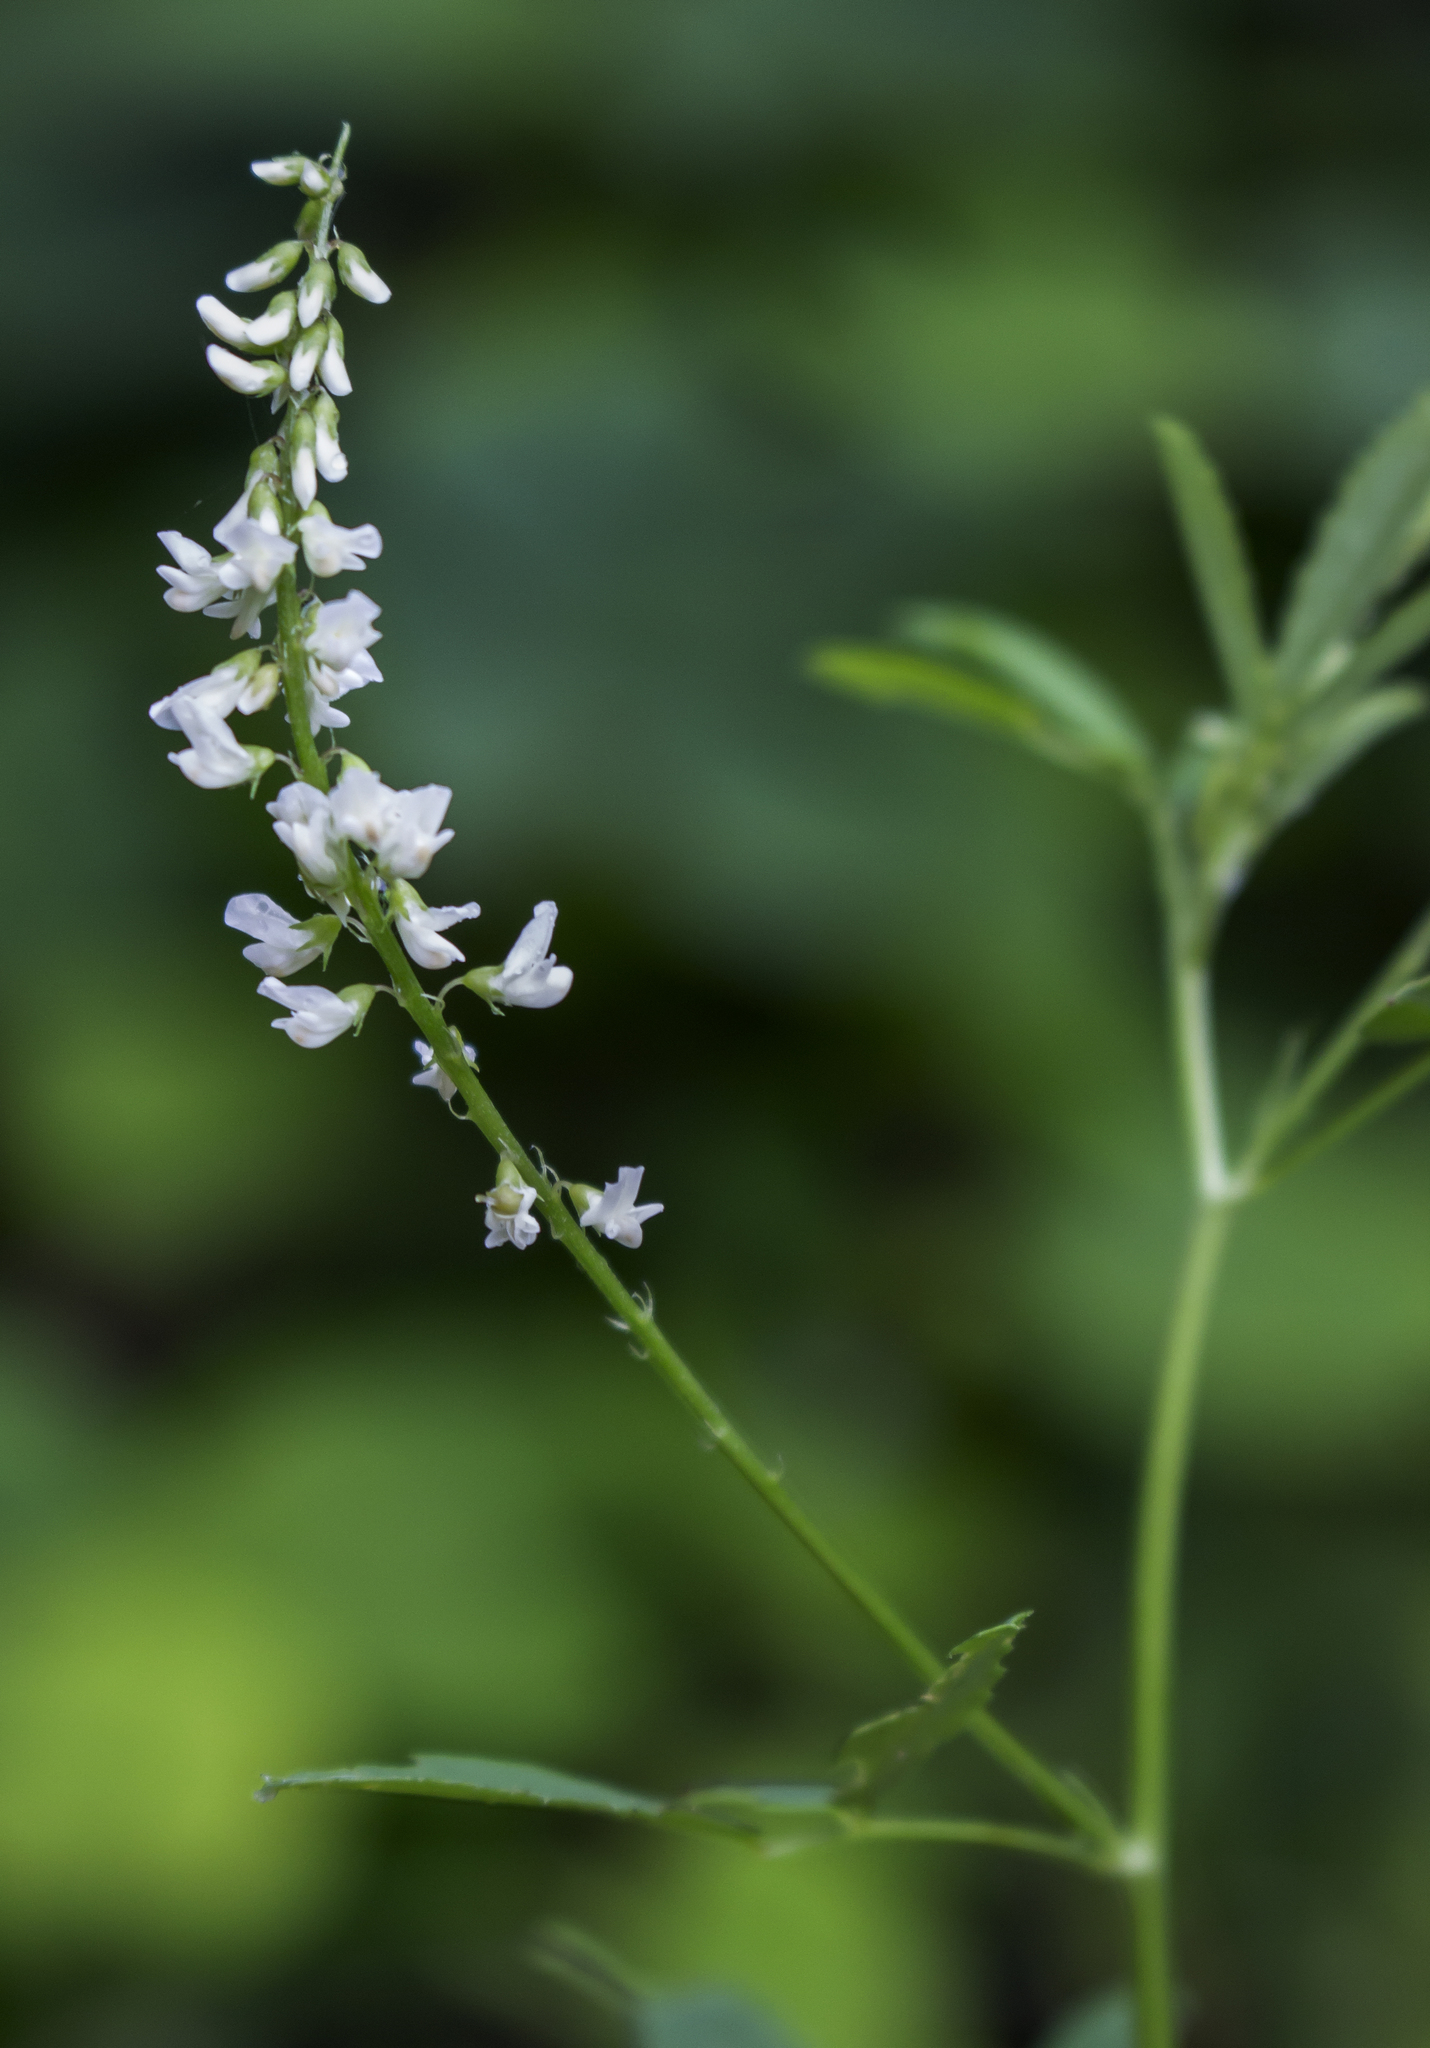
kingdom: Plantae
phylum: Tracheophyta
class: Magnoliopsida
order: Fabales
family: Fabaceae
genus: Melilotus
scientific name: Melilotus albus
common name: White melilot
